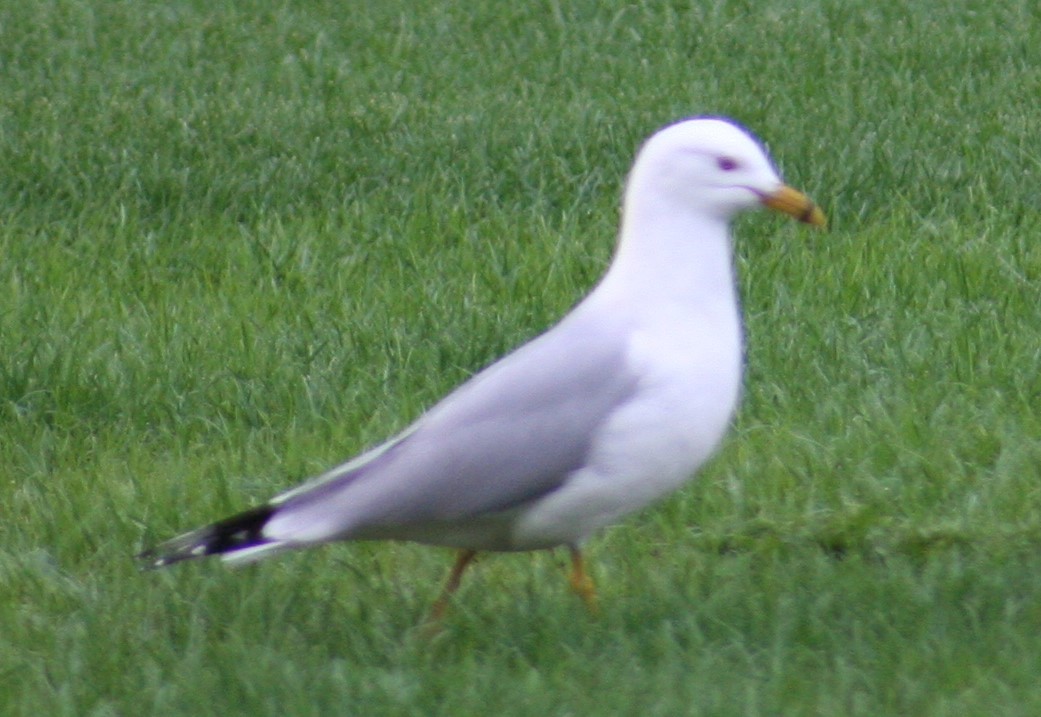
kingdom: Animalia
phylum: Chordata
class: Aves
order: Charadriiformes
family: Laridae
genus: Larus
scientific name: Larus delawarensis
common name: Ring-billed gull
